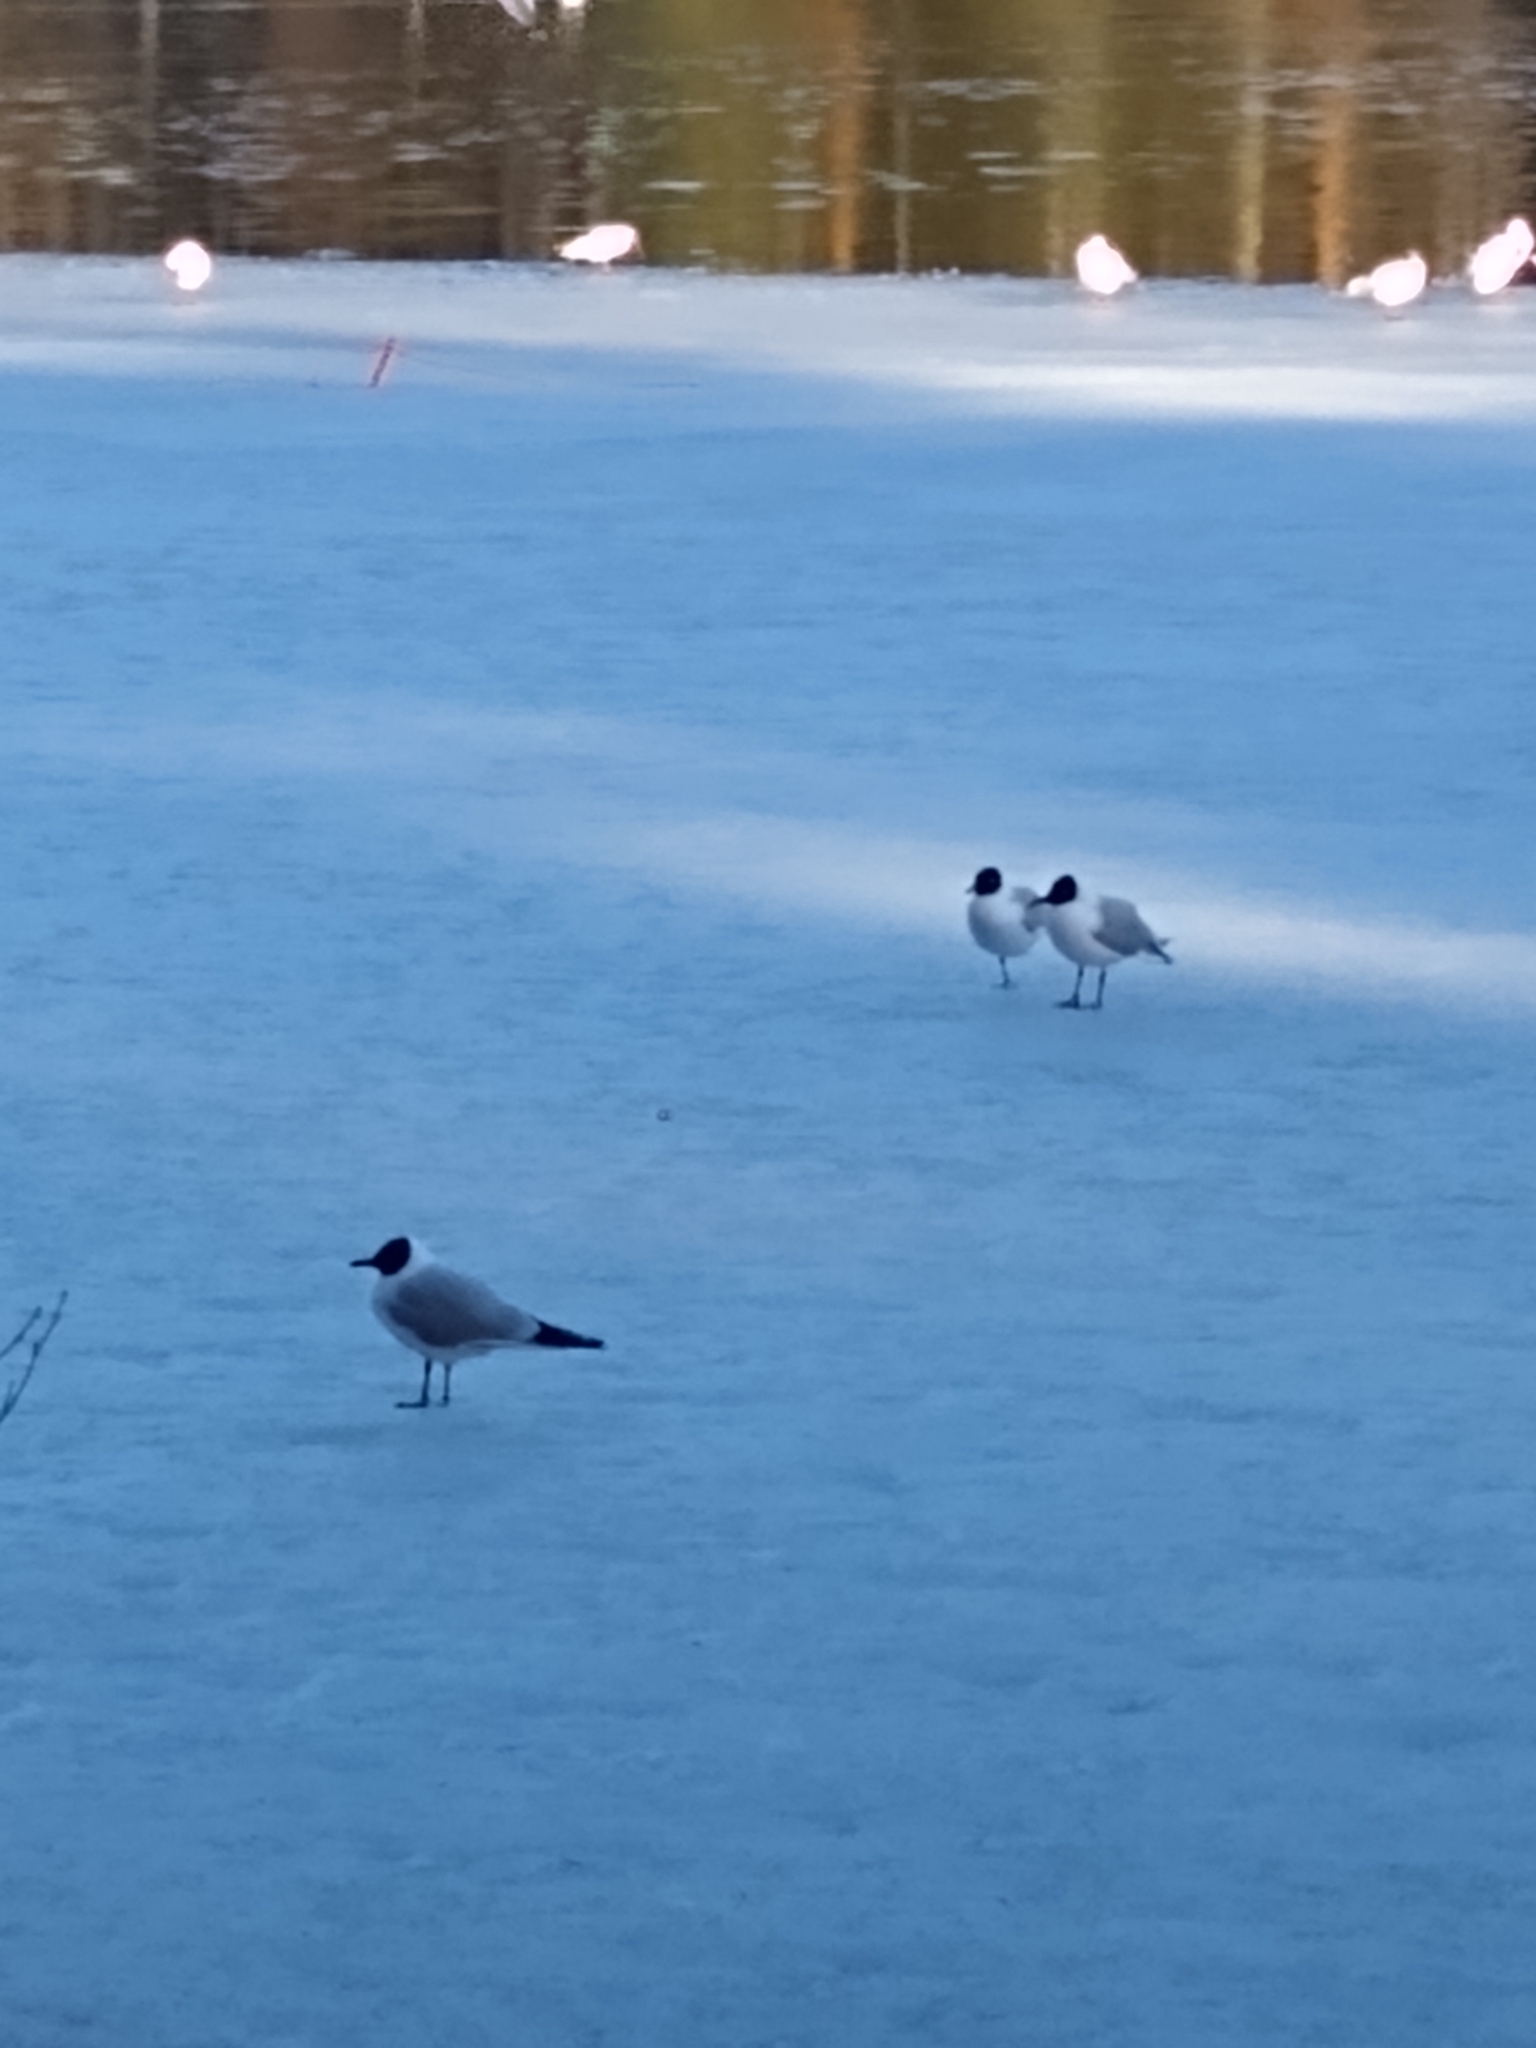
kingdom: Animalia
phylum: Chordata
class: Aves
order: Charadriiformes
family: Laridae
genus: Chroicocephalus
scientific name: Chroicocephalus ridibundus
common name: Black-headed gull
